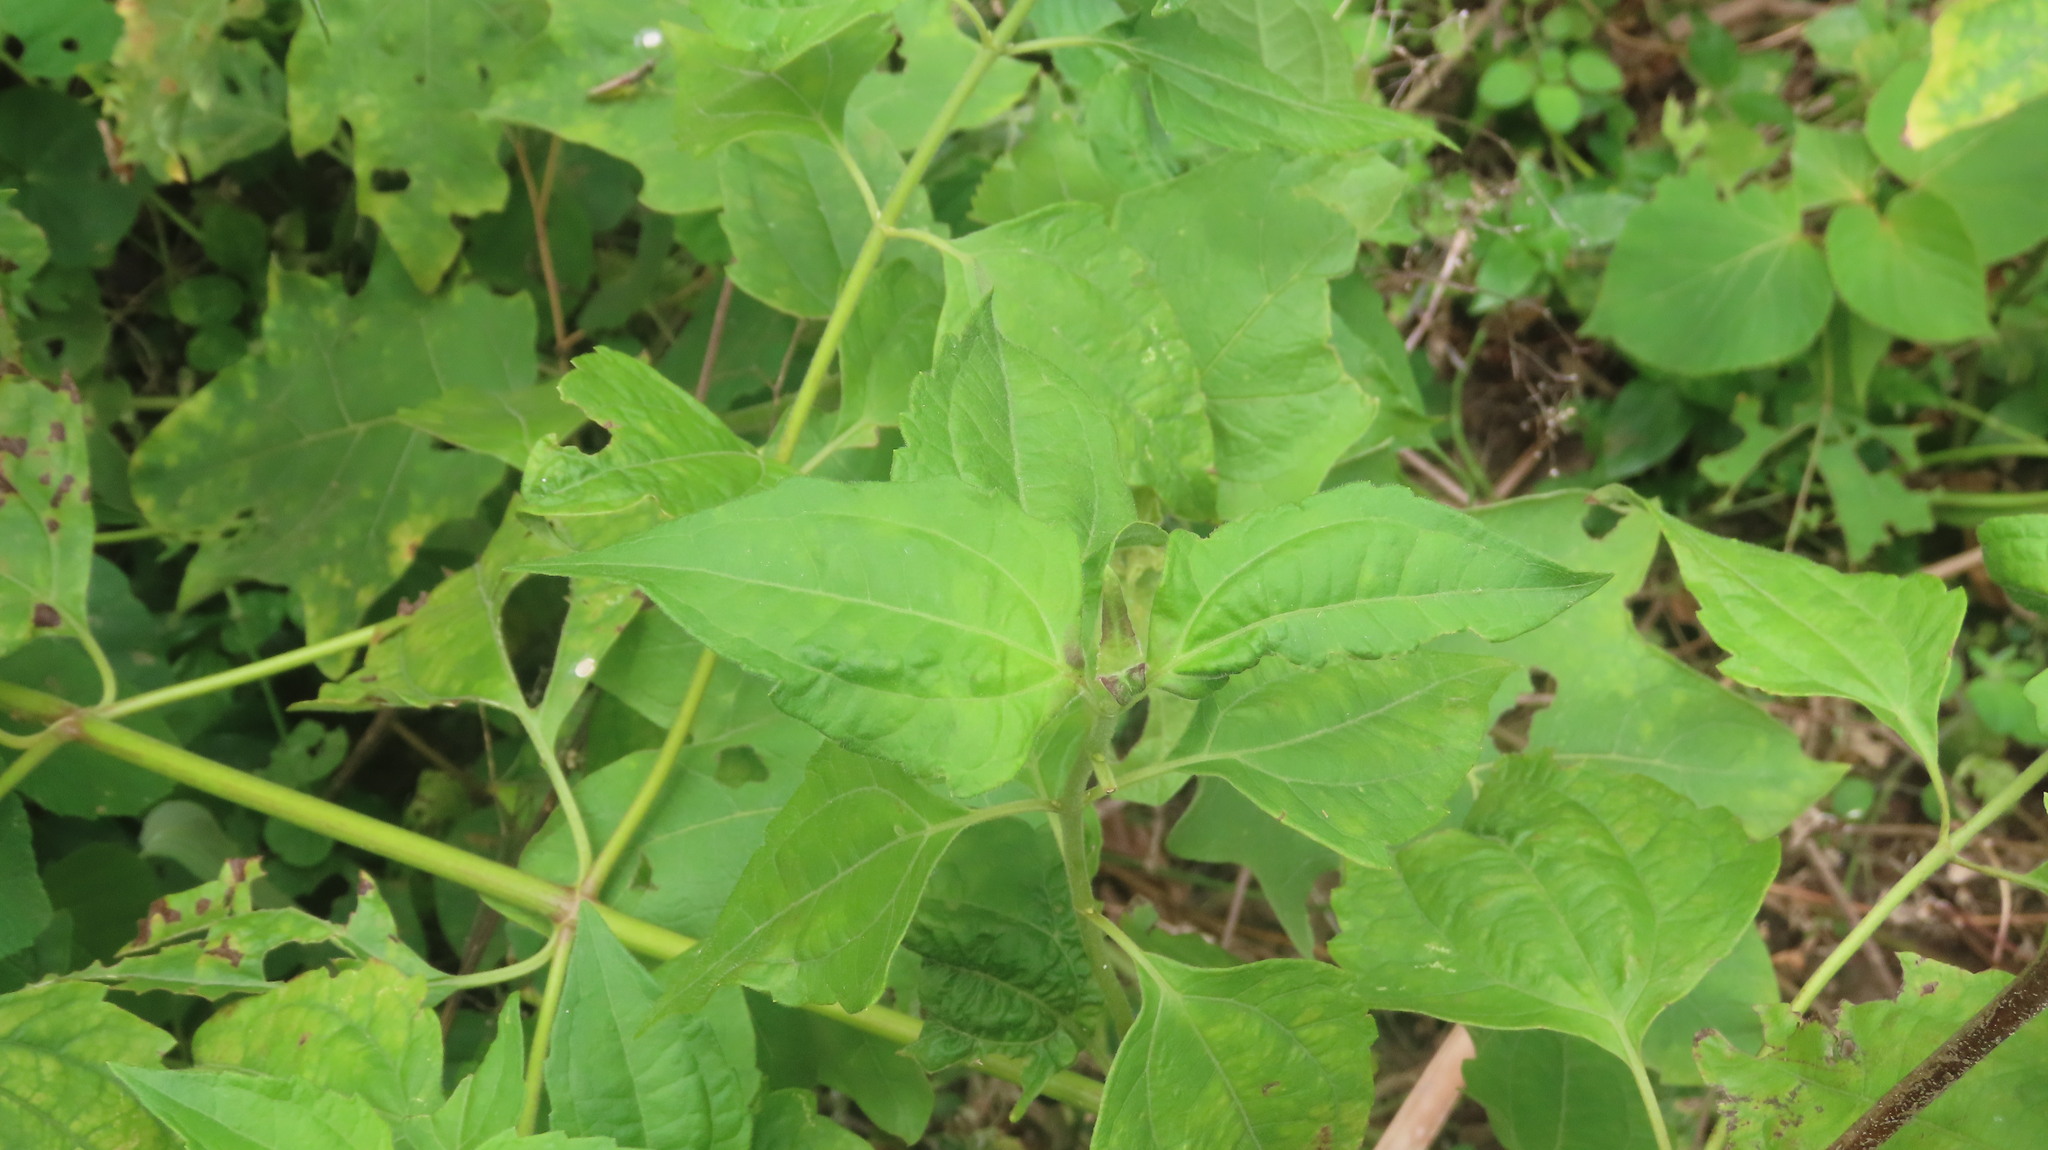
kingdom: Plantae
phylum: Tracheophyta
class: Magnoliopsida
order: Asterales
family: Asteraceae
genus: Chromolaena
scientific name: Chromolaena odorata
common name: Siamweed
